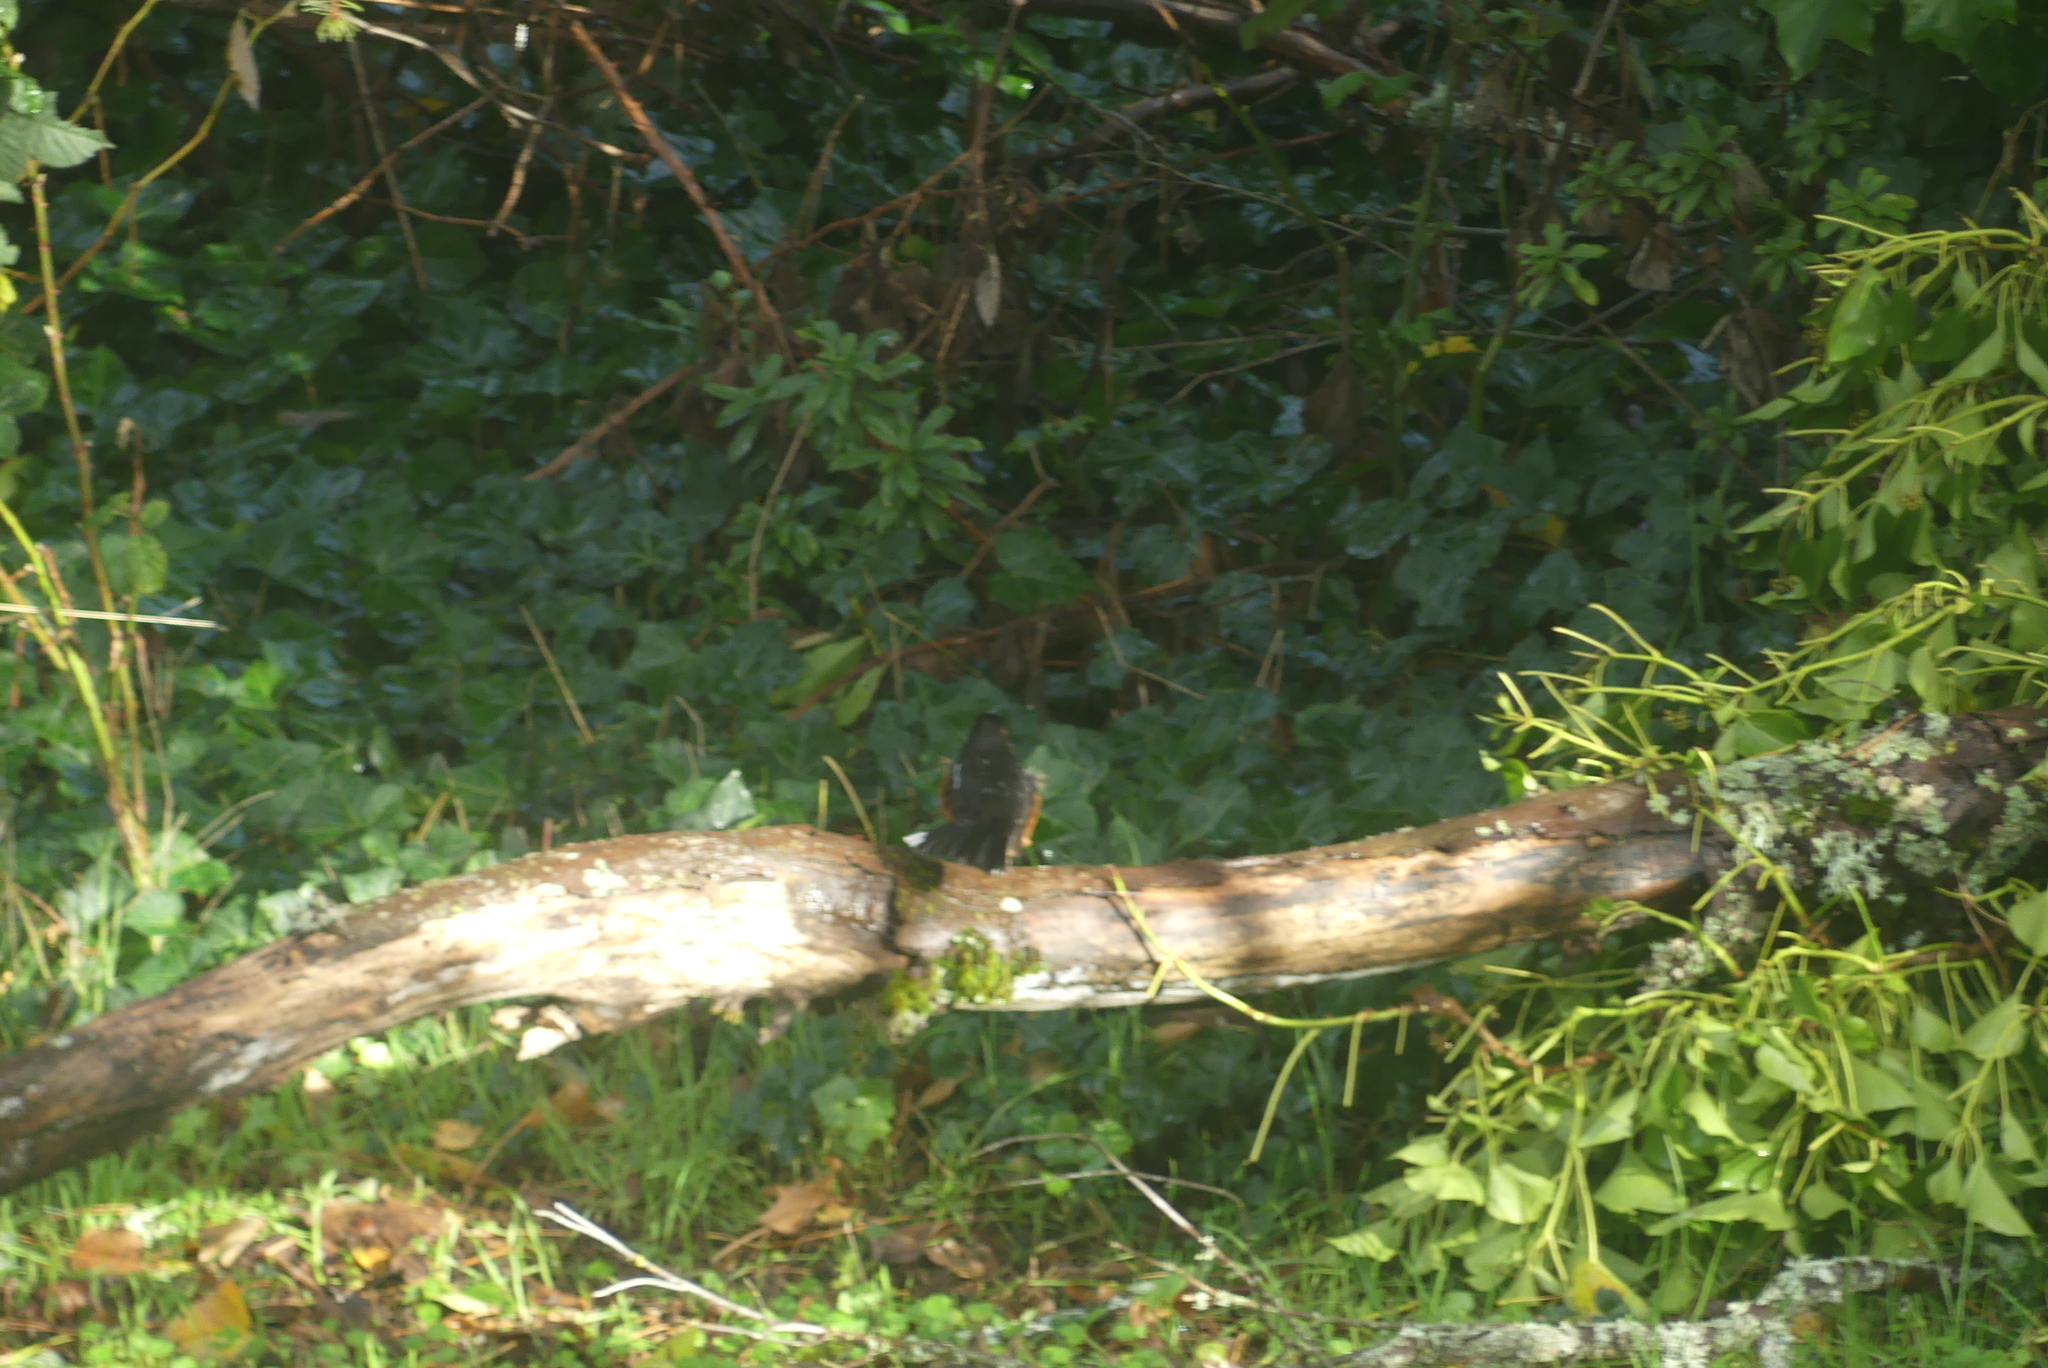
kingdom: Animalia
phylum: Chordata
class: Aves
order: Passeriformes
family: Passerellidae
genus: Pipilo
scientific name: Pipilo maculatus
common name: Spotted towhee
